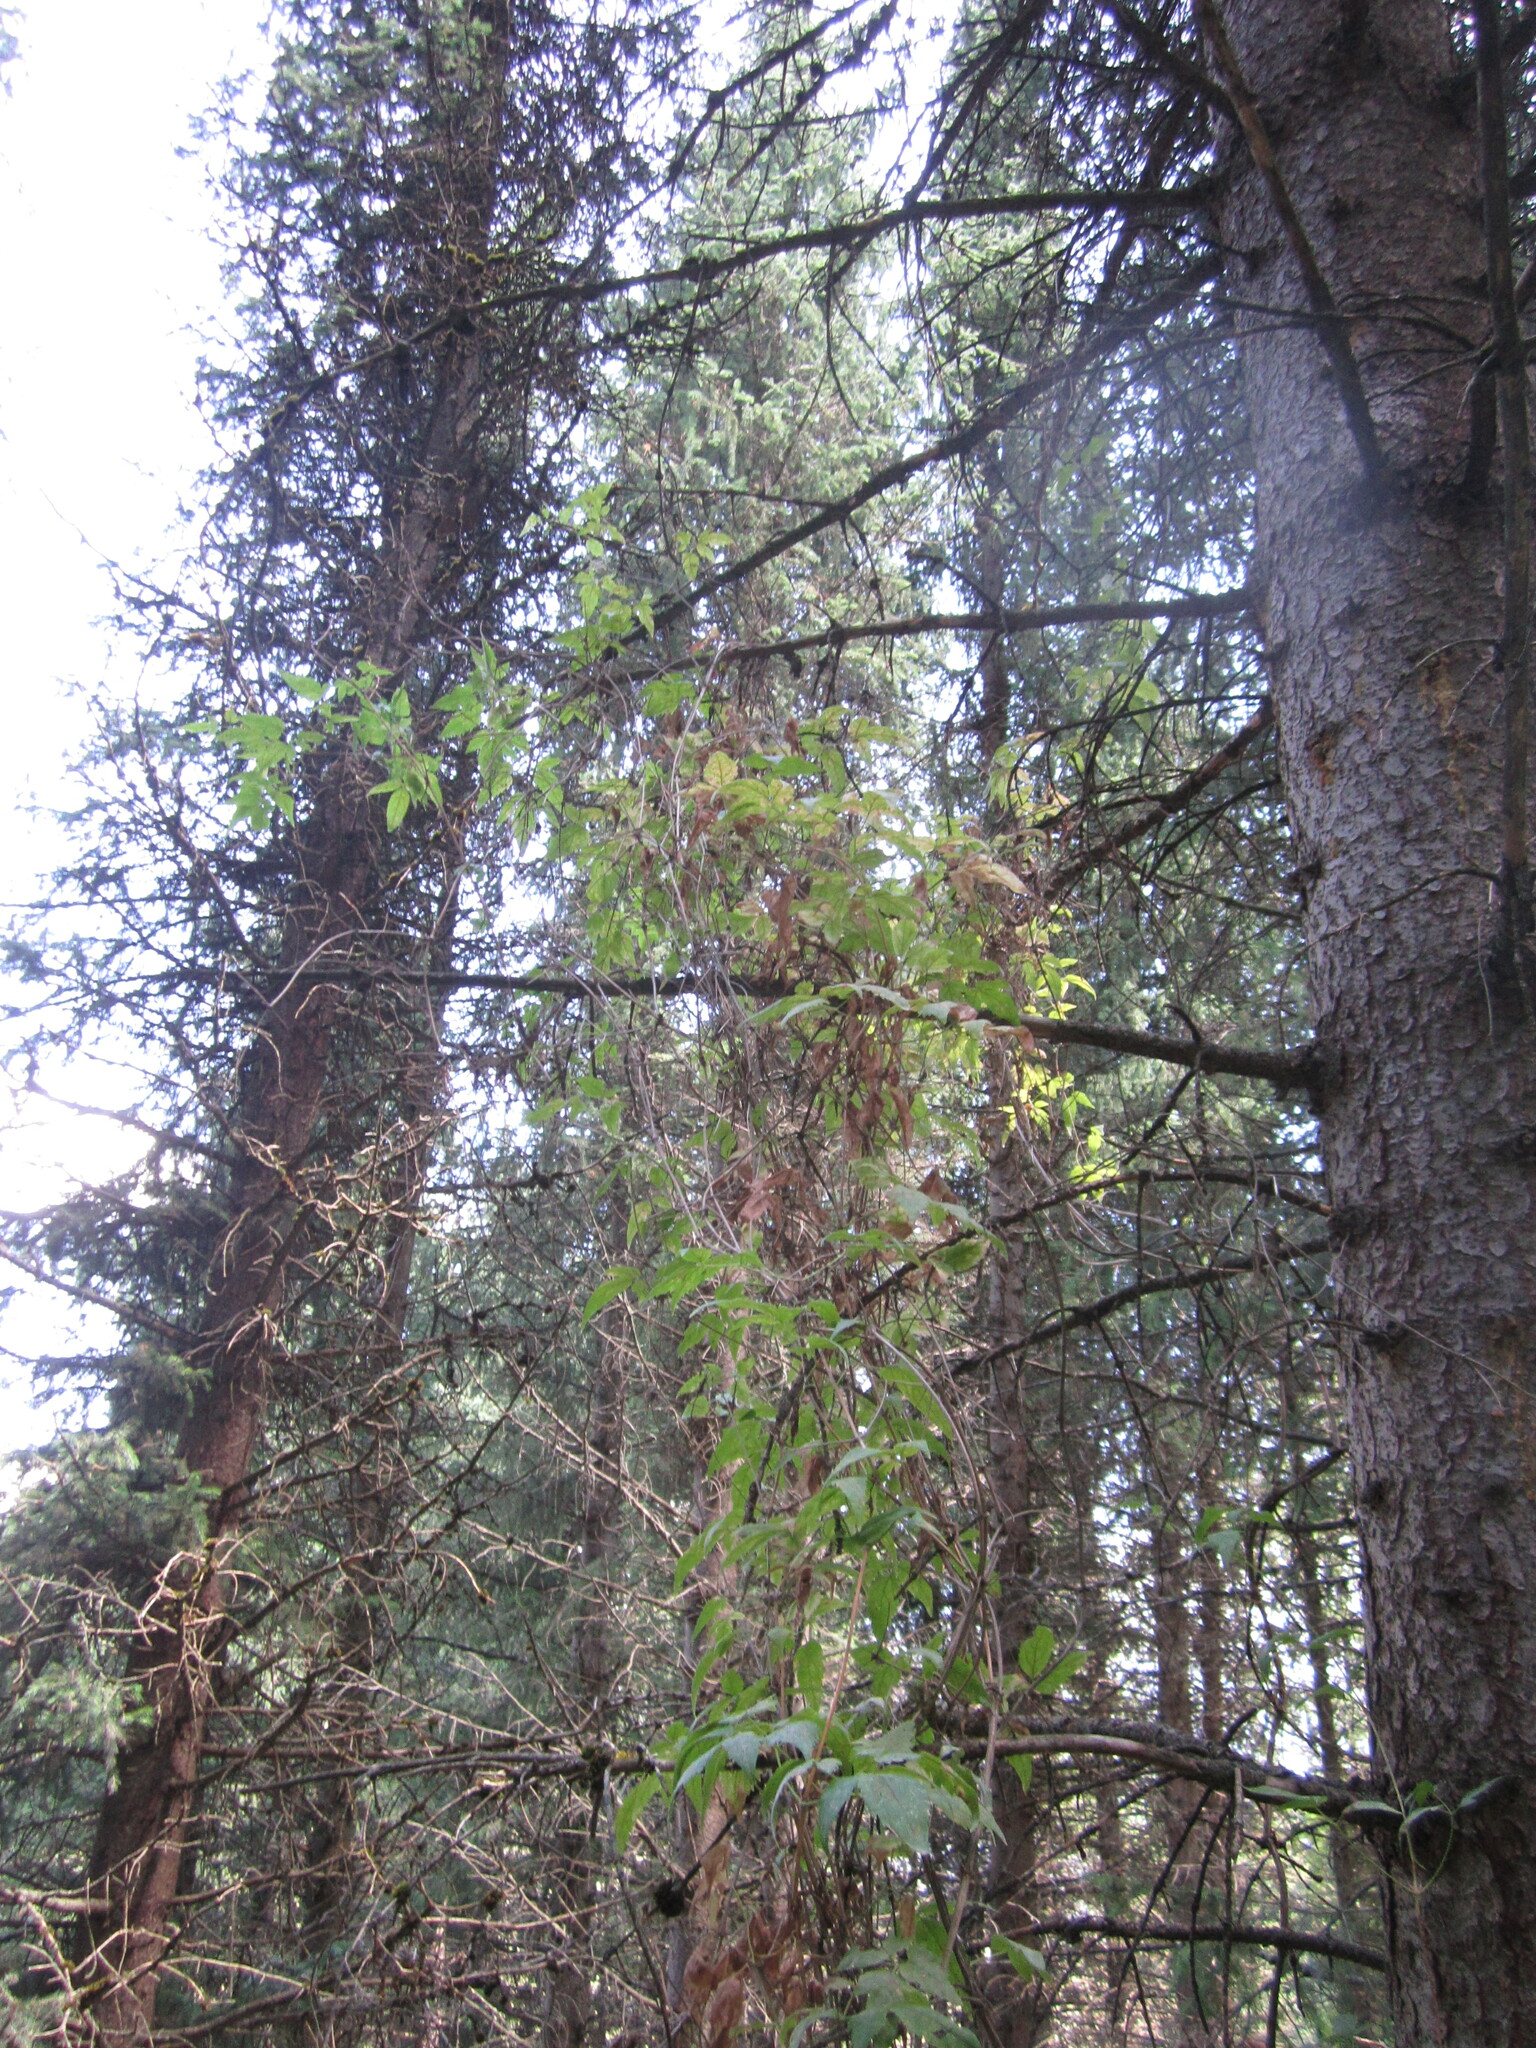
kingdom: Plantae
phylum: Tracheophyta
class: Magnoliopsida
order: Ranunculales
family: Ranunculaceae
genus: Clematis
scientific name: Clematis sibirica
